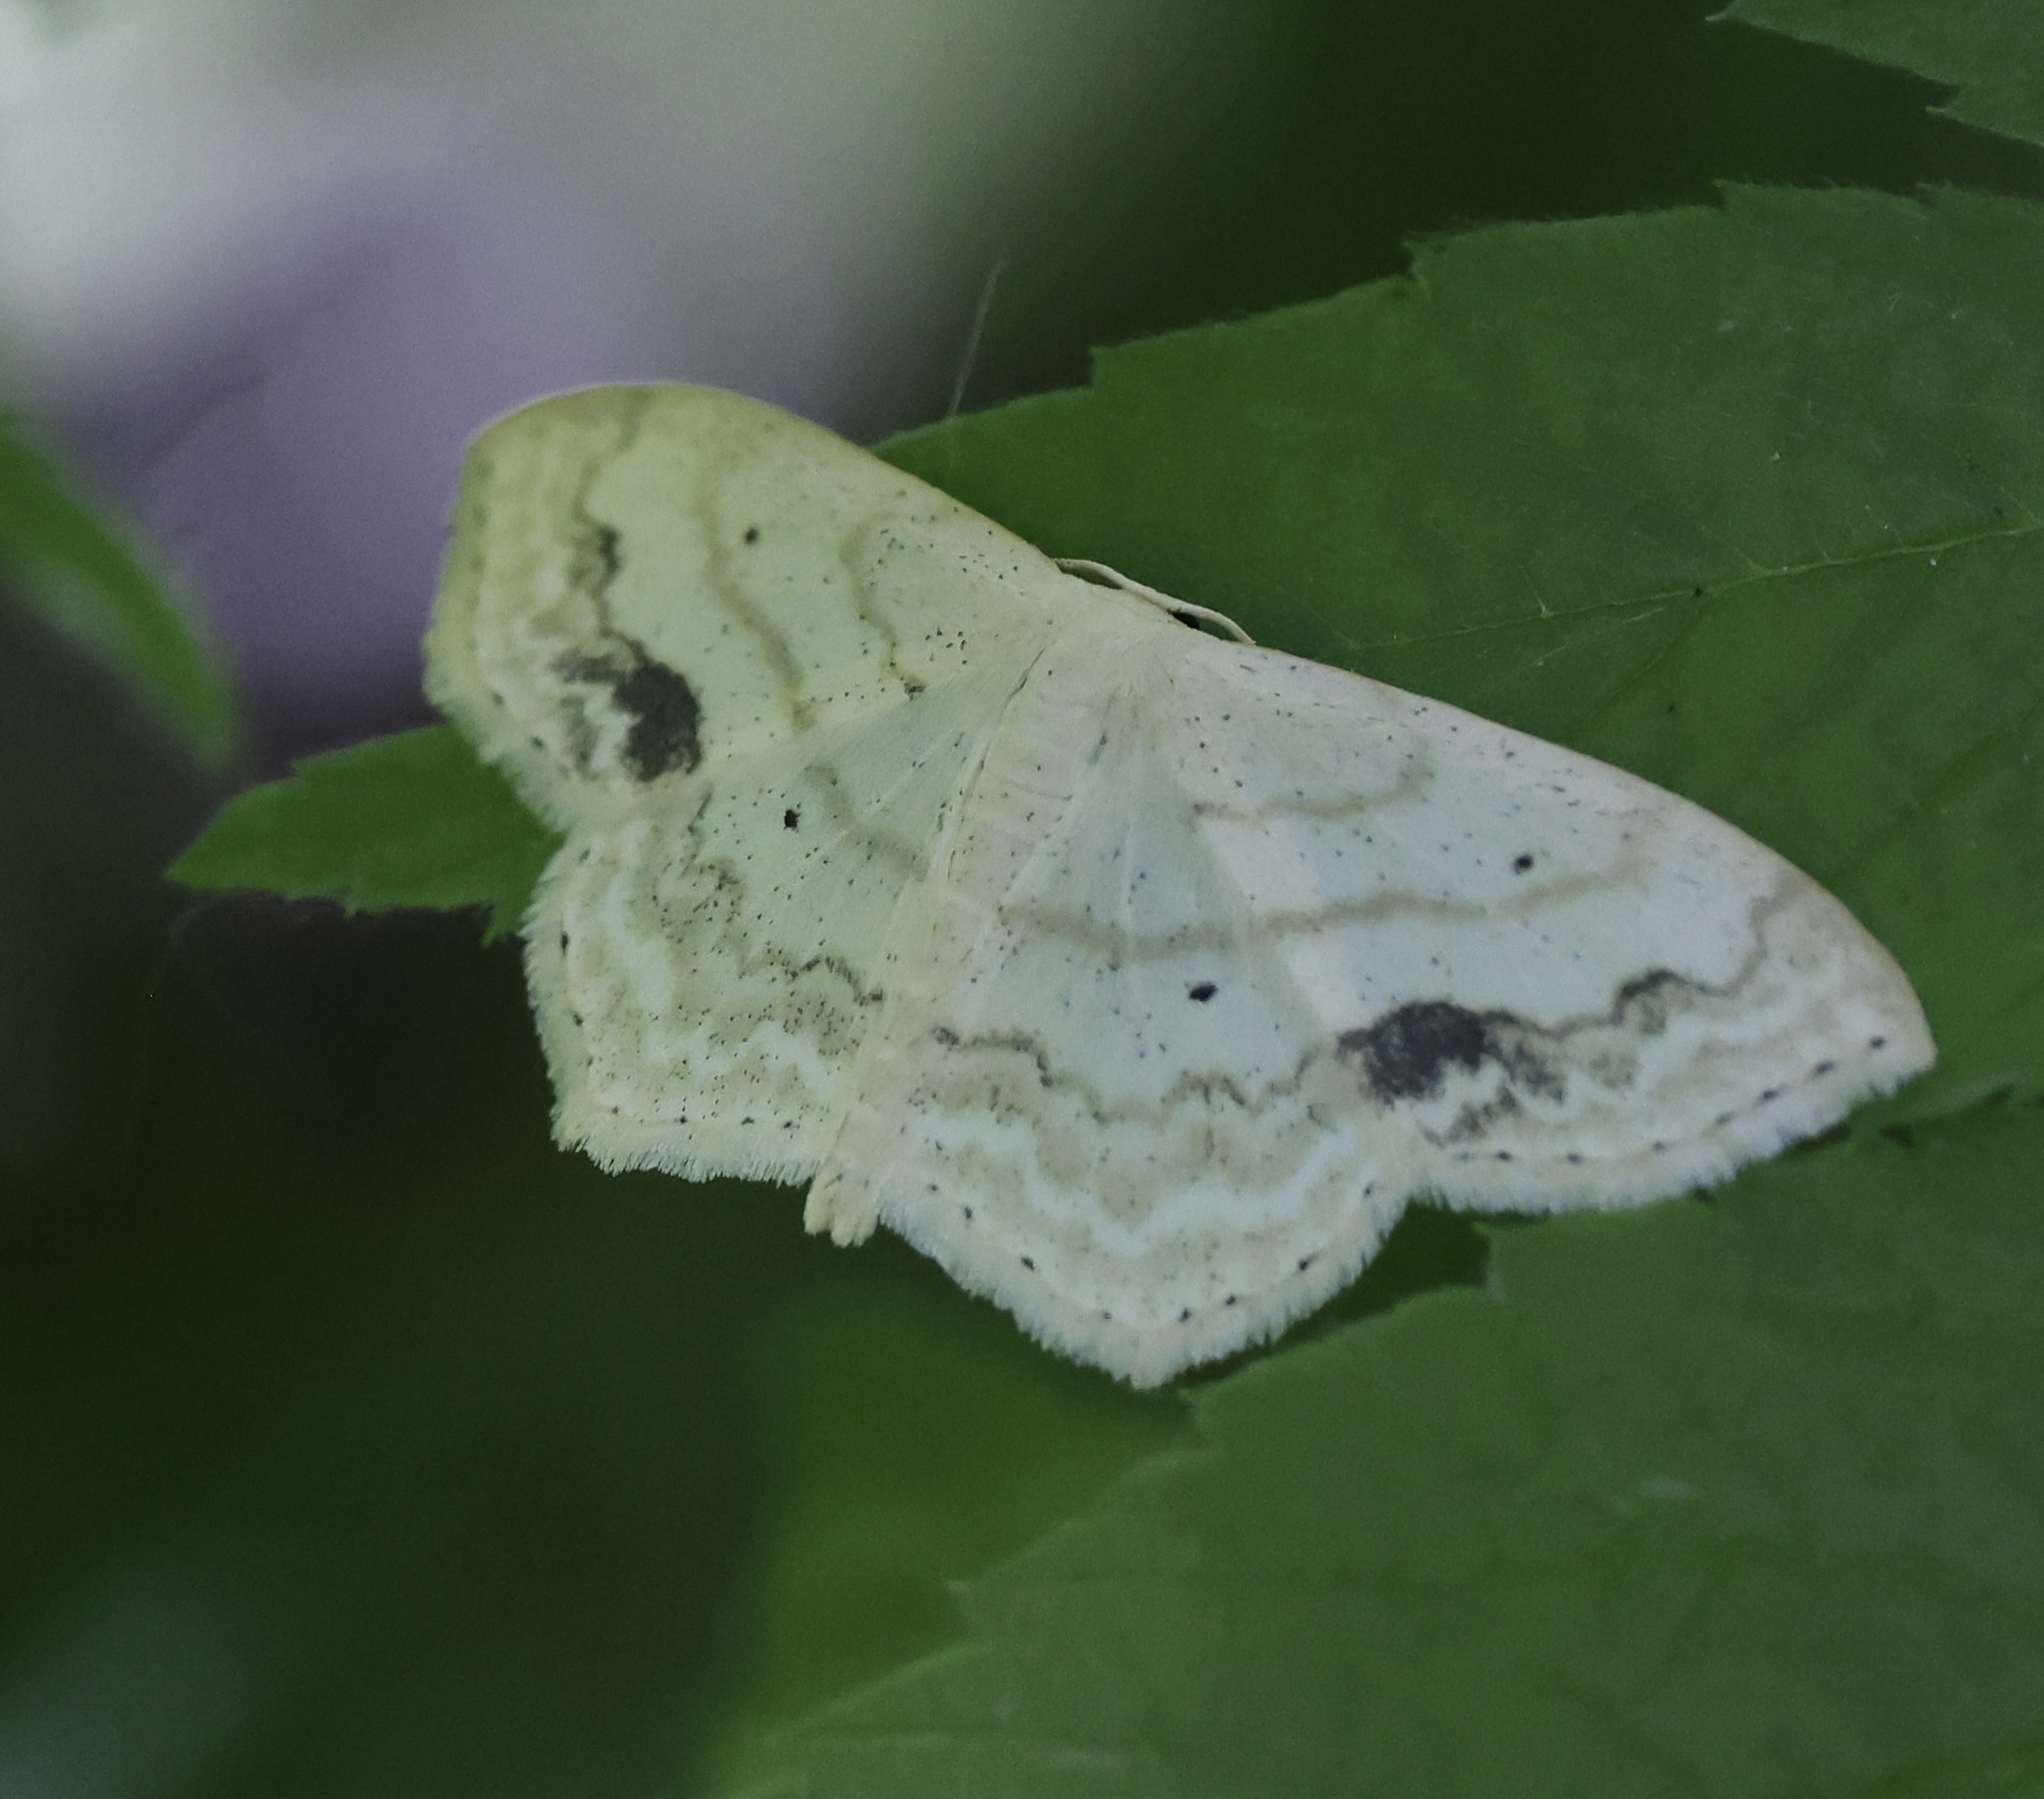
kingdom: Animalia
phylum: Arthropoda
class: Insecta
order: Lepidoptera
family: Geometridae
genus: Scopula
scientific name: Scopula limboundata
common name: Large lace border
